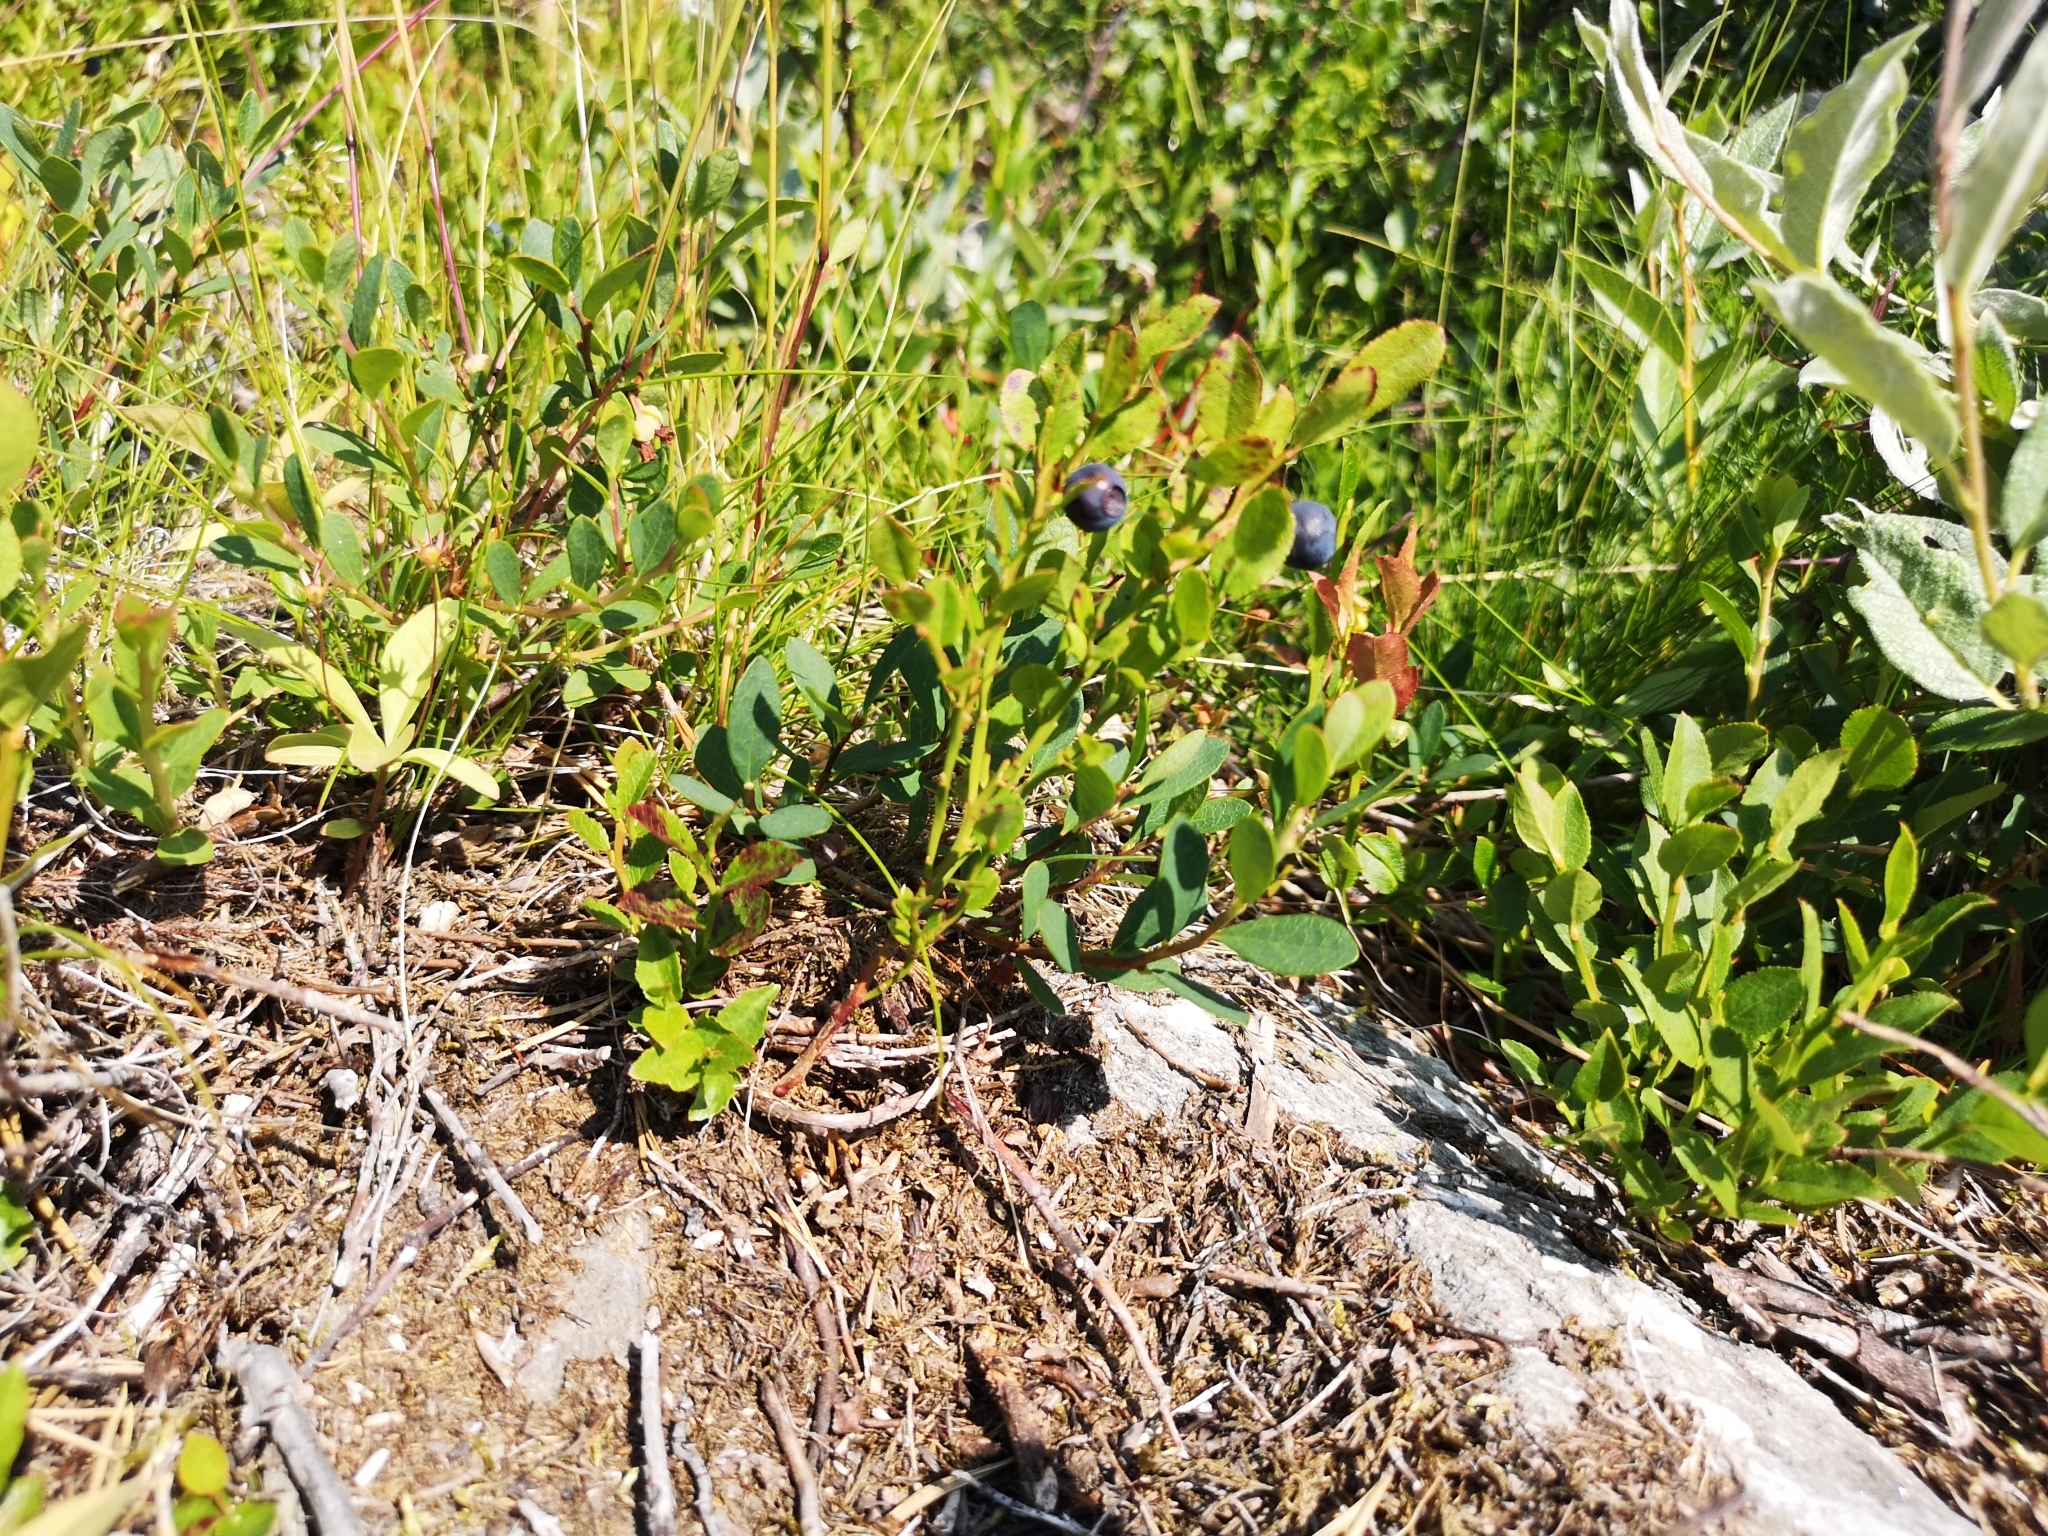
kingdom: Plantae
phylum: Tracheophyta
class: Magnoliopsida
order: Ericales
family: Ericaceae
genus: Vaccinium
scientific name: Vaccinium myrtillus
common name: Bilberry
